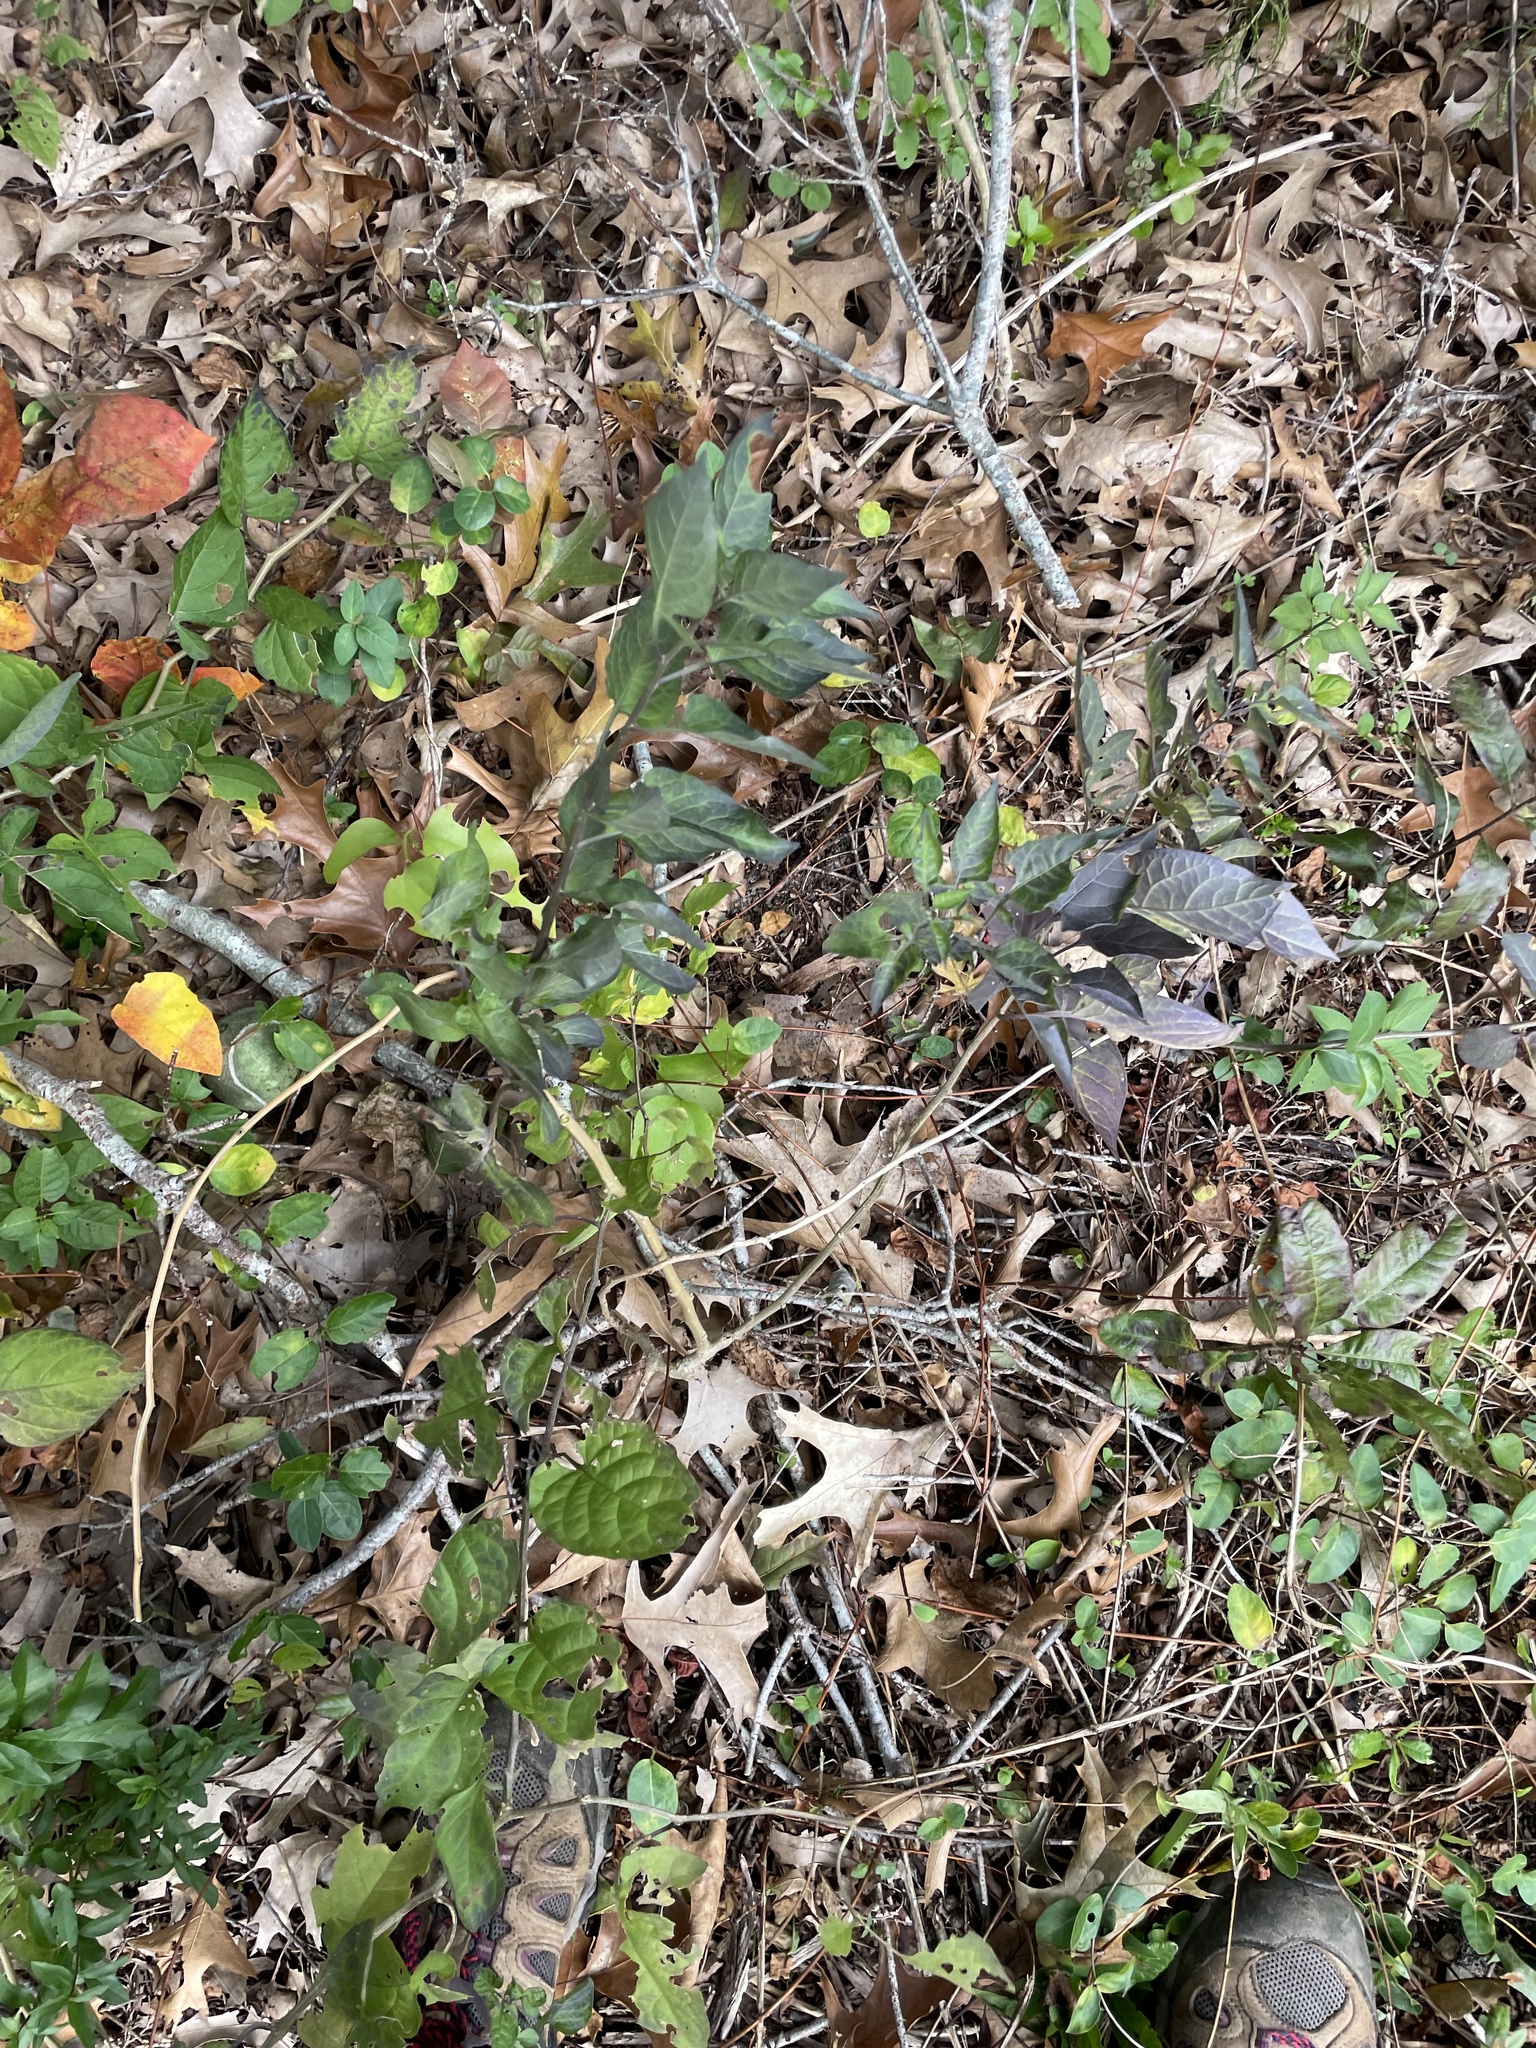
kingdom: Plantae
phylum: Tracheophyta
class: Magnoliopsida
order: Solanales
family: Solanaceae
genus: Solanum
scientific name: Solanum dulcamara
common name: Climbing nightshade
